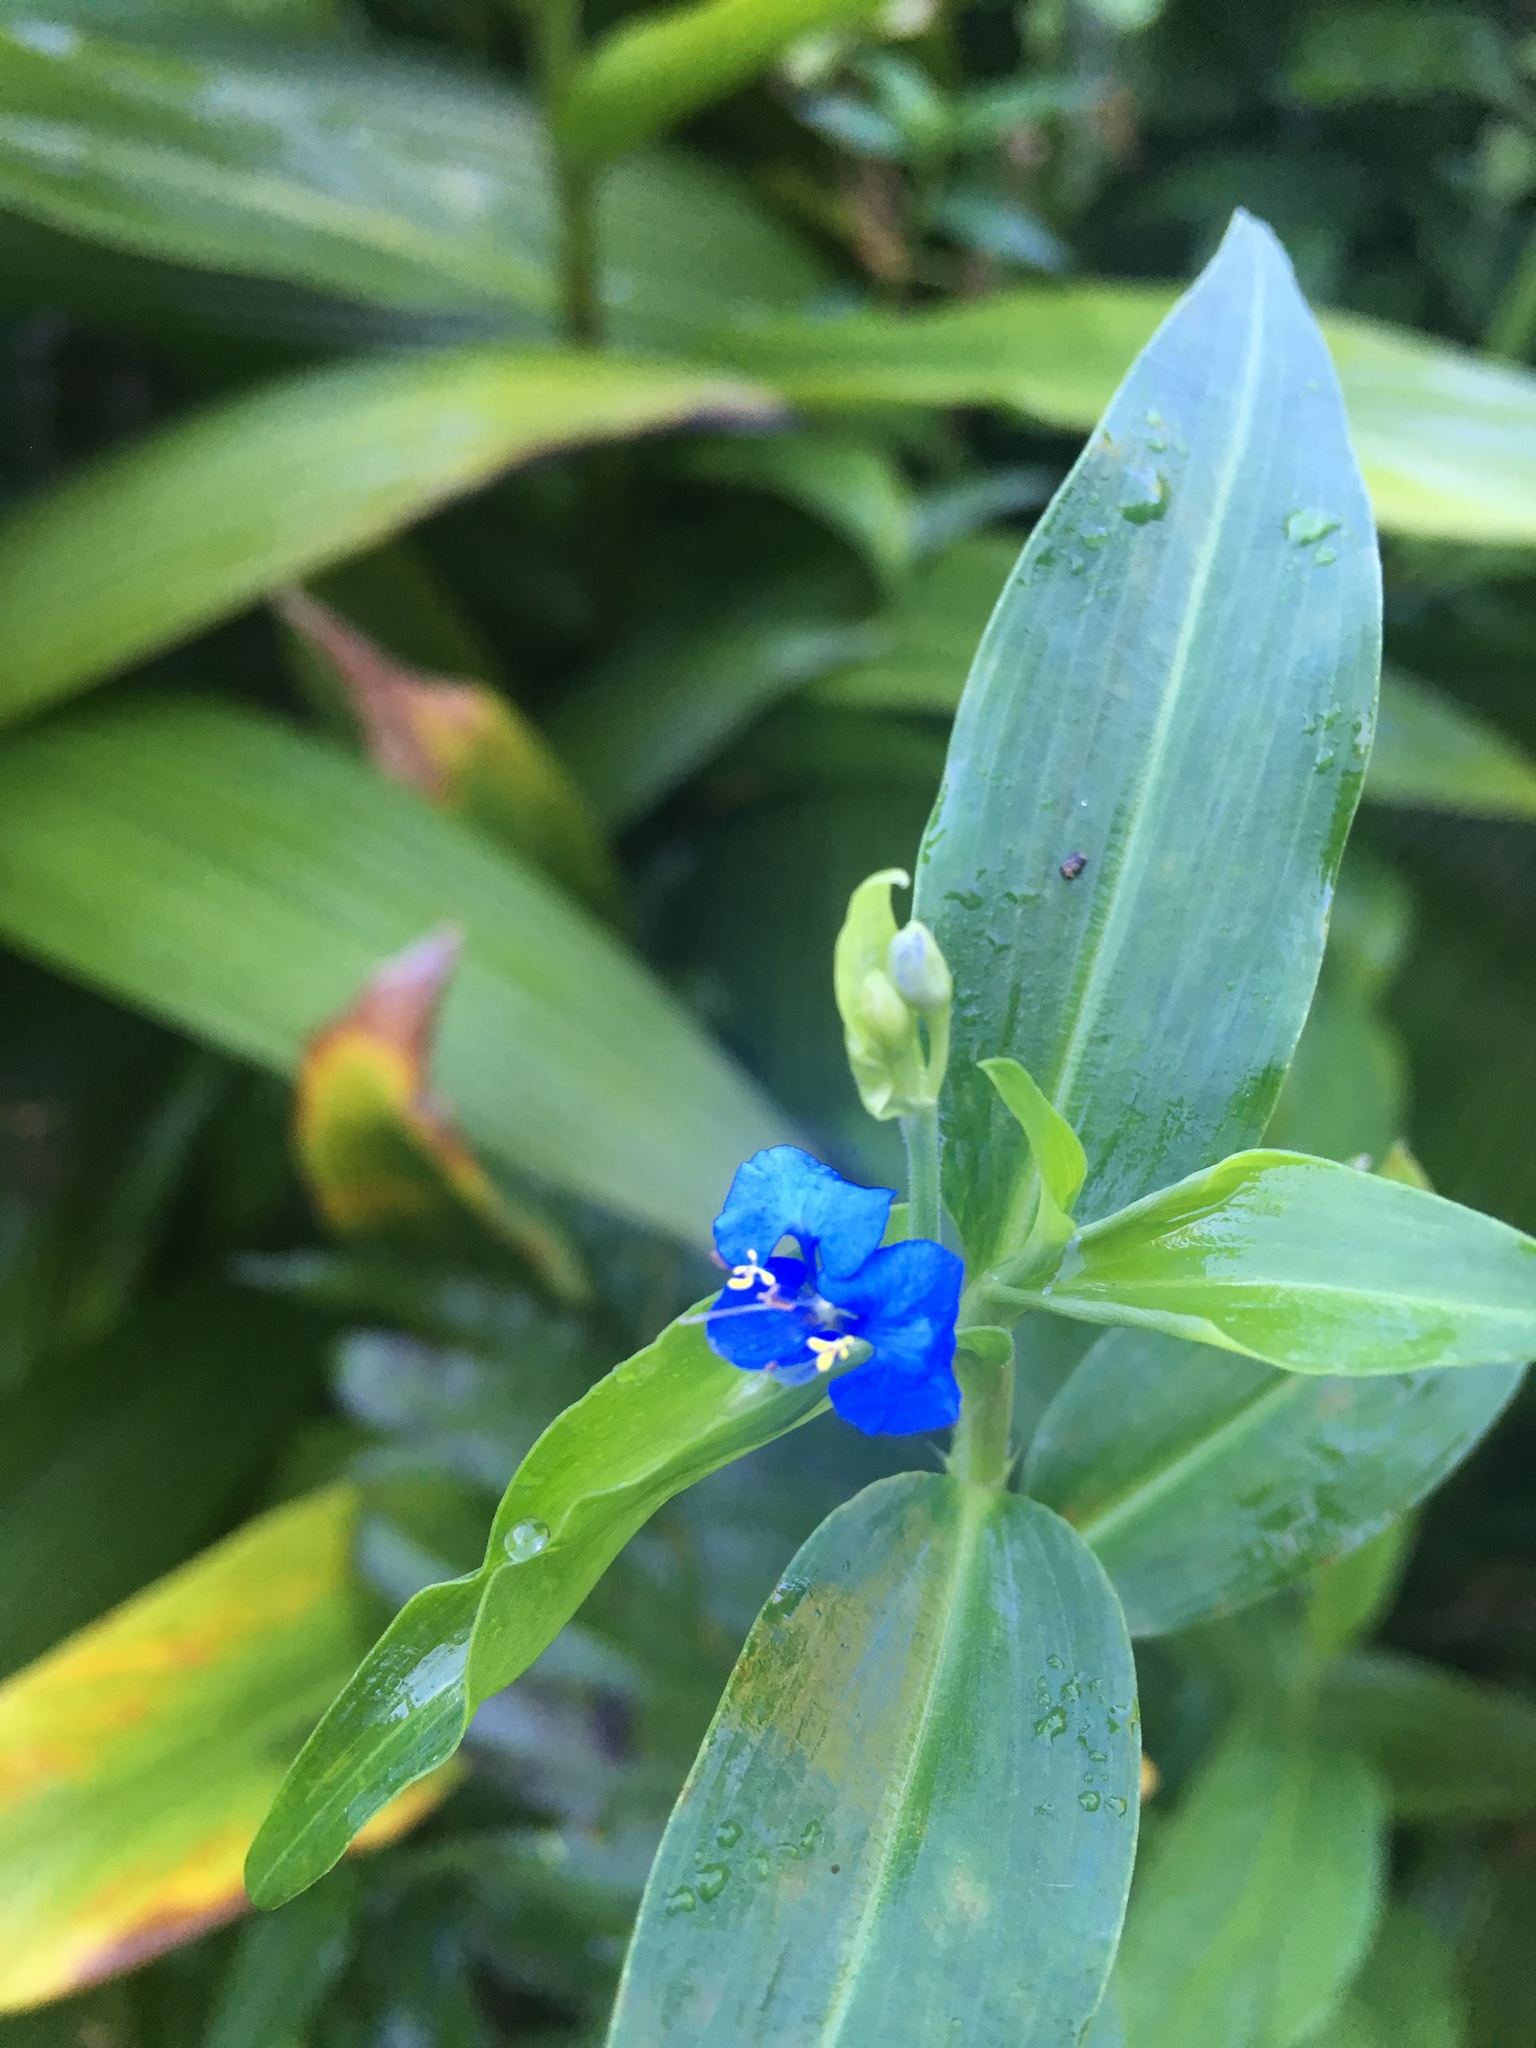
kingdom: Plantae
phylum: Tracheophyta
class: Liliopsida
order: Commelinales
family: Commelinaceae
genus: Commelina
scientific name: Commelina diffusa
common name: Climbing dayflower
